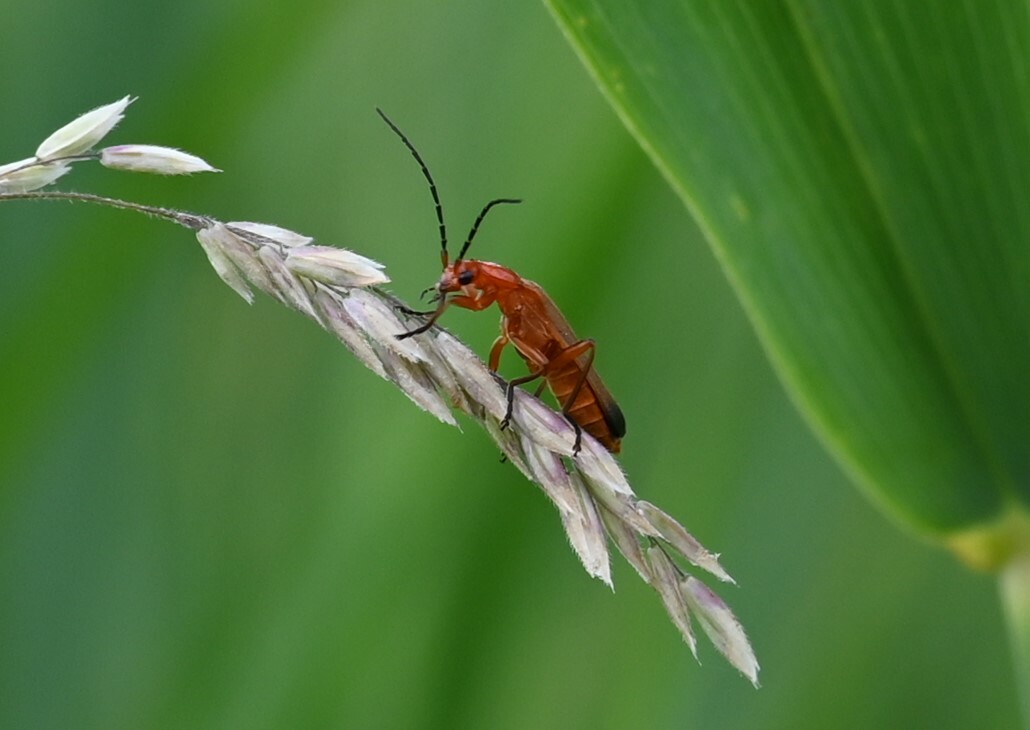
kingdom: Animalia
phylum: Arthropoda
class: Insecta
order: Coleoptera
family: Cantharidae
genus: Rhagonycha
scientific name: Rhagonycha fulva
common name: Common red soldier beetle
